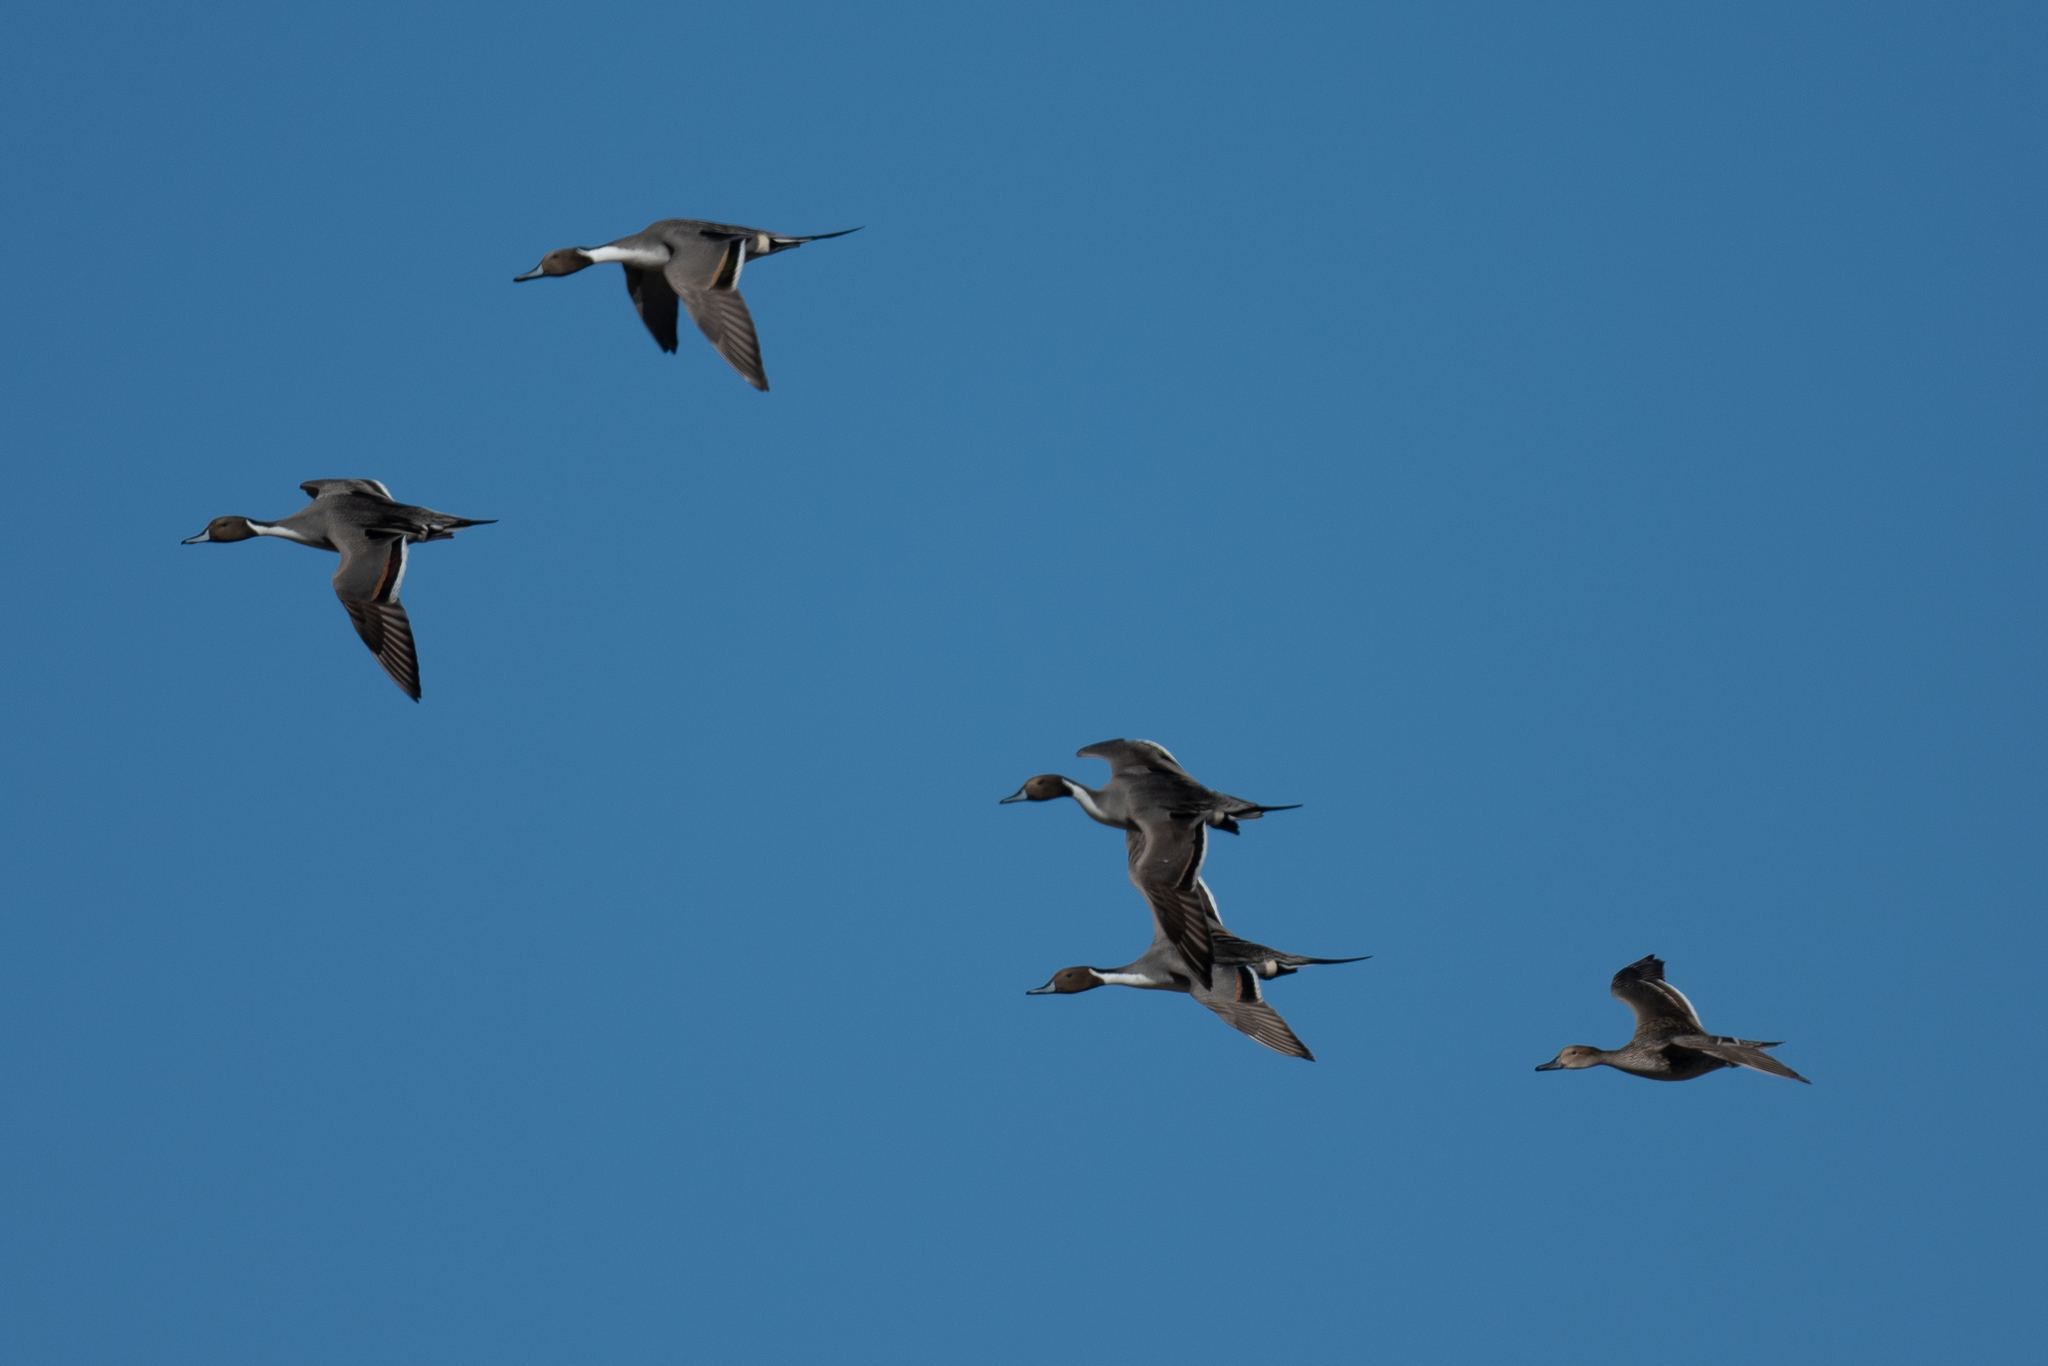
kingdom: Animalia
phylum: Chordata
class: Aves
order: Anseriformes
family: Anatidae
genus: Anas
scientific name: Anas acuta
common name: Northern pintail
